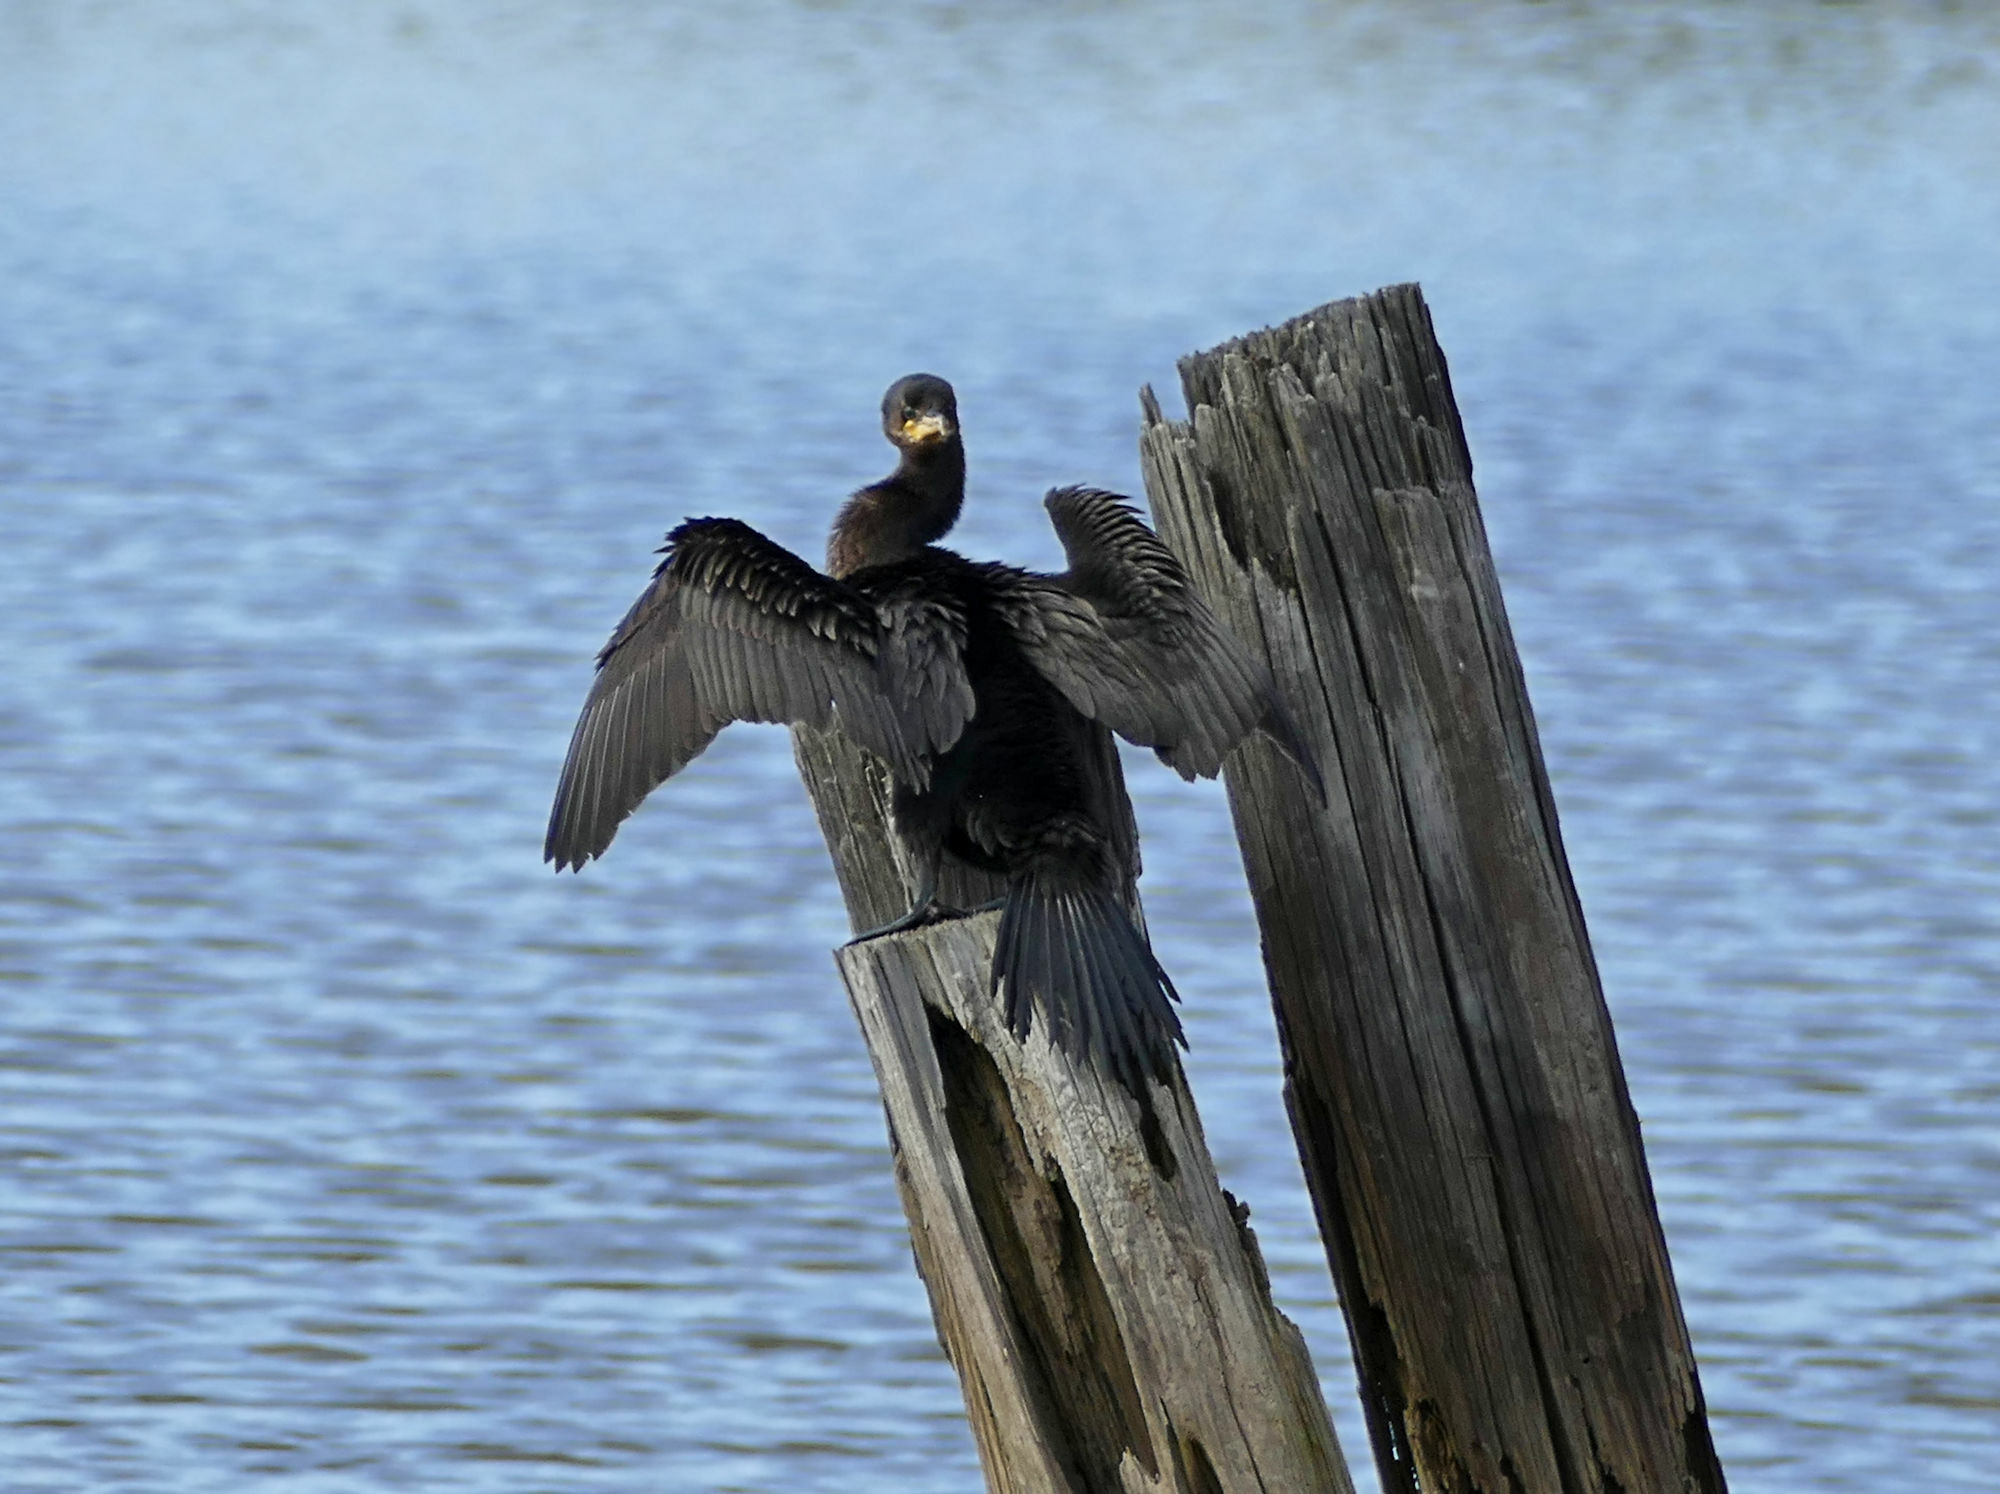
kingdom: Animalia
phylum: Chordata
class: Aves
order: Suliformes
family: Phalacrocoracidae
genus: Phalacrocorax
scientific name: Phalacrocorax brasilianus
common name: Neotropic cormorant
